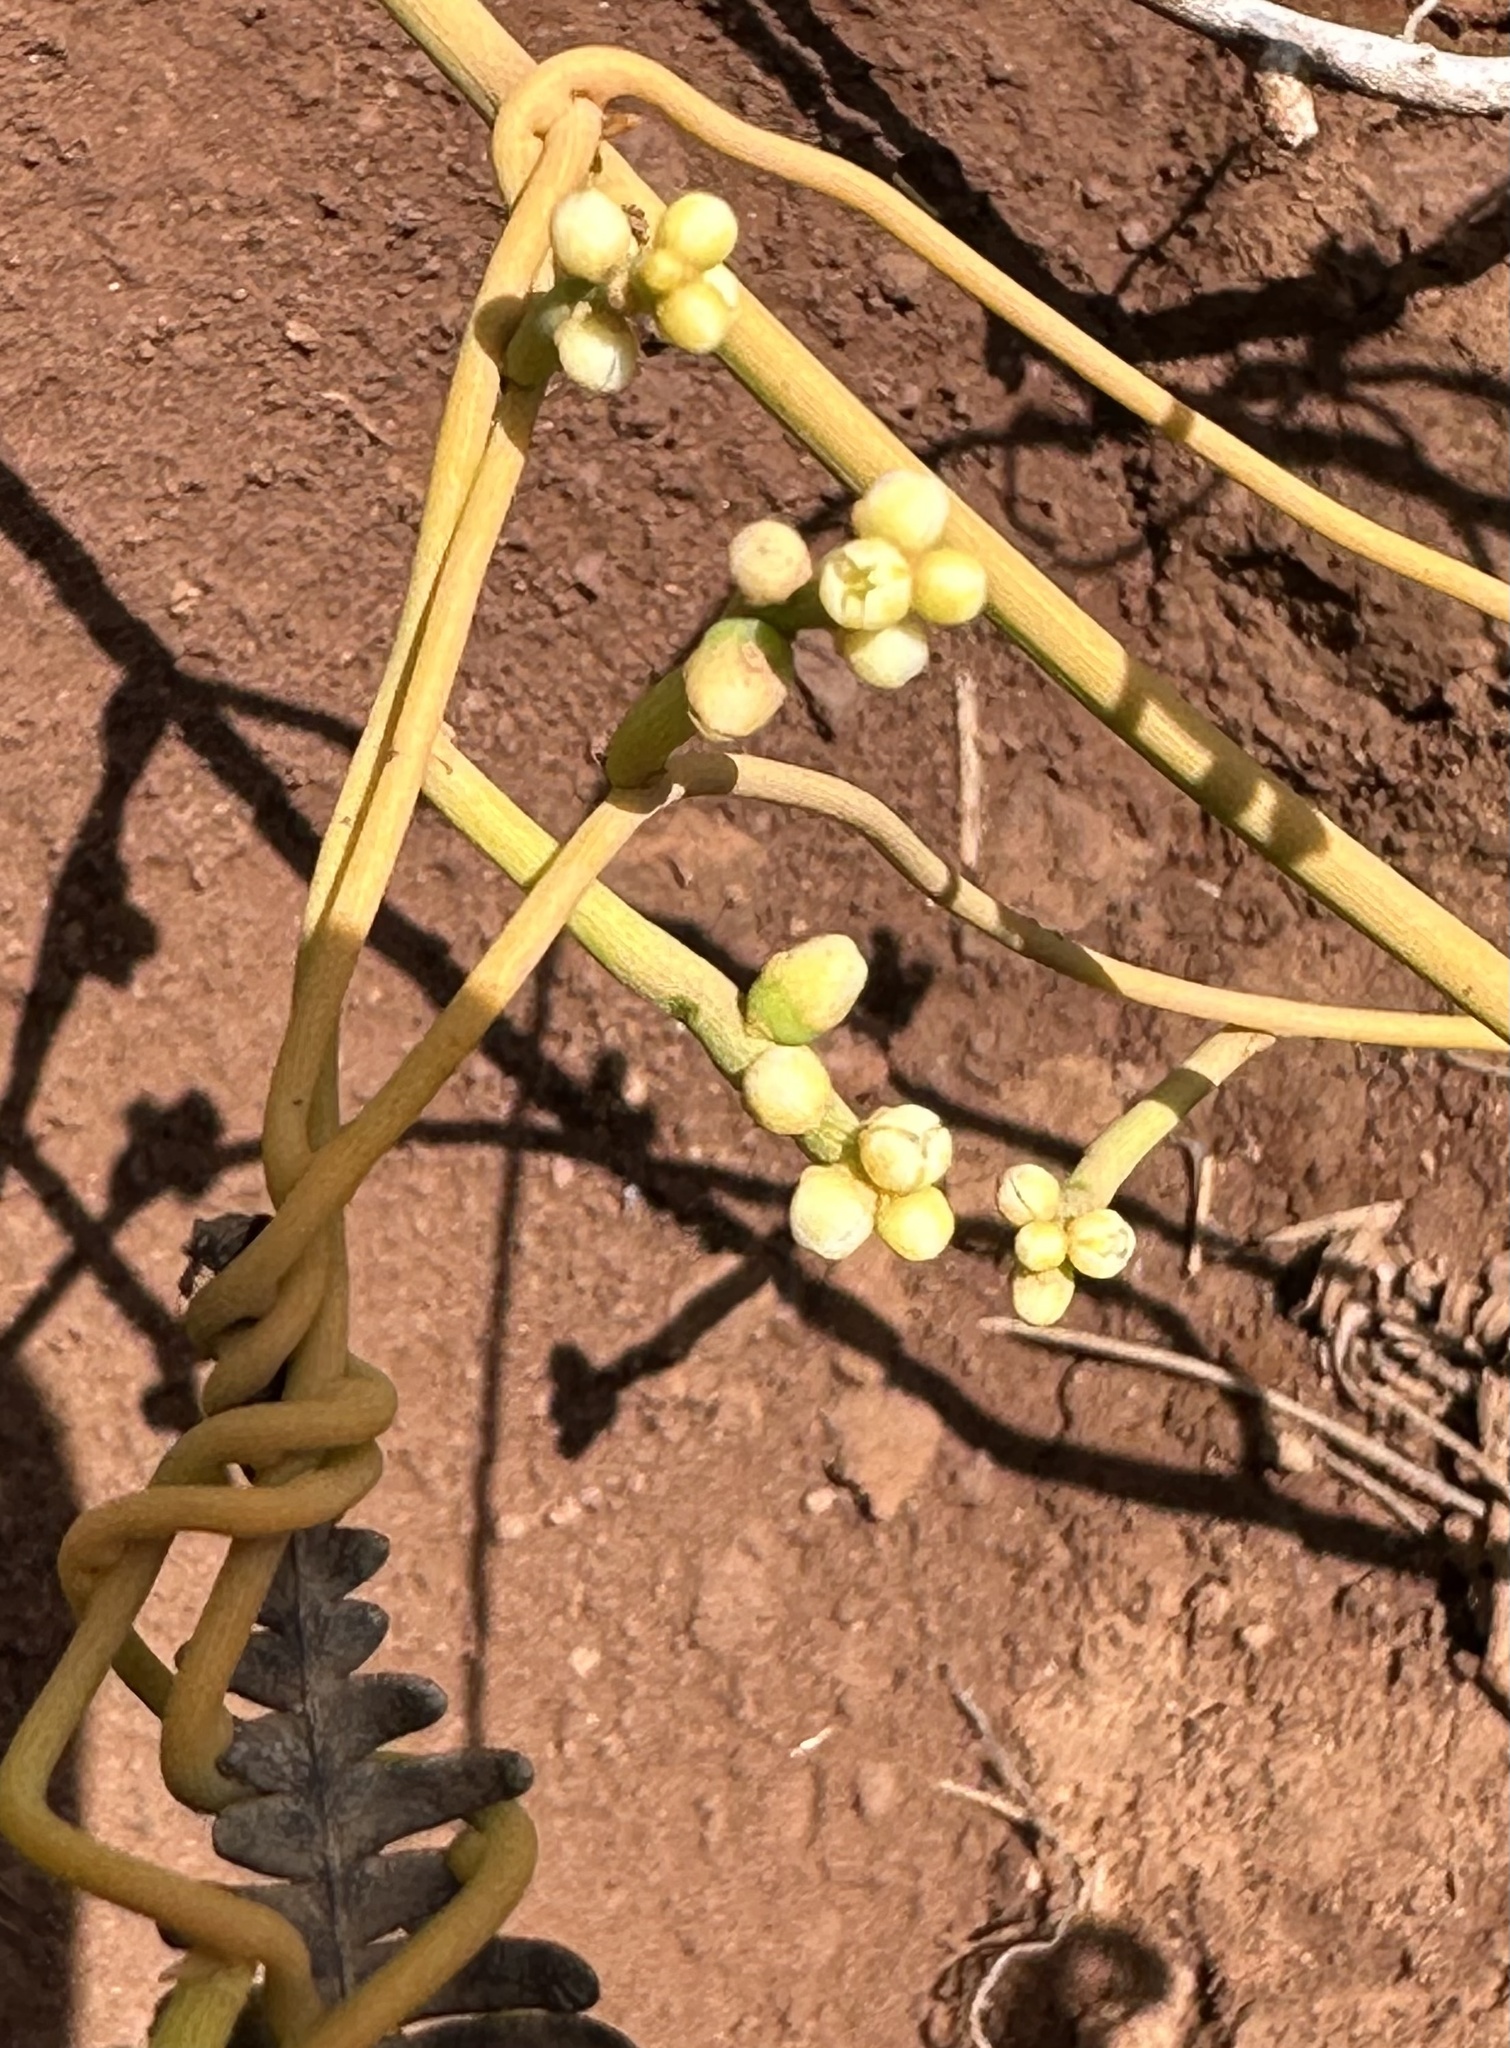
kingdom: Plantae
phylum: Tracheophyta
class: Magnoliopsida
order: Laurales
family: Lauraceae
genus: Cassytha
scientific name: Cassytha filiformis
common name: Dodder-laurel
